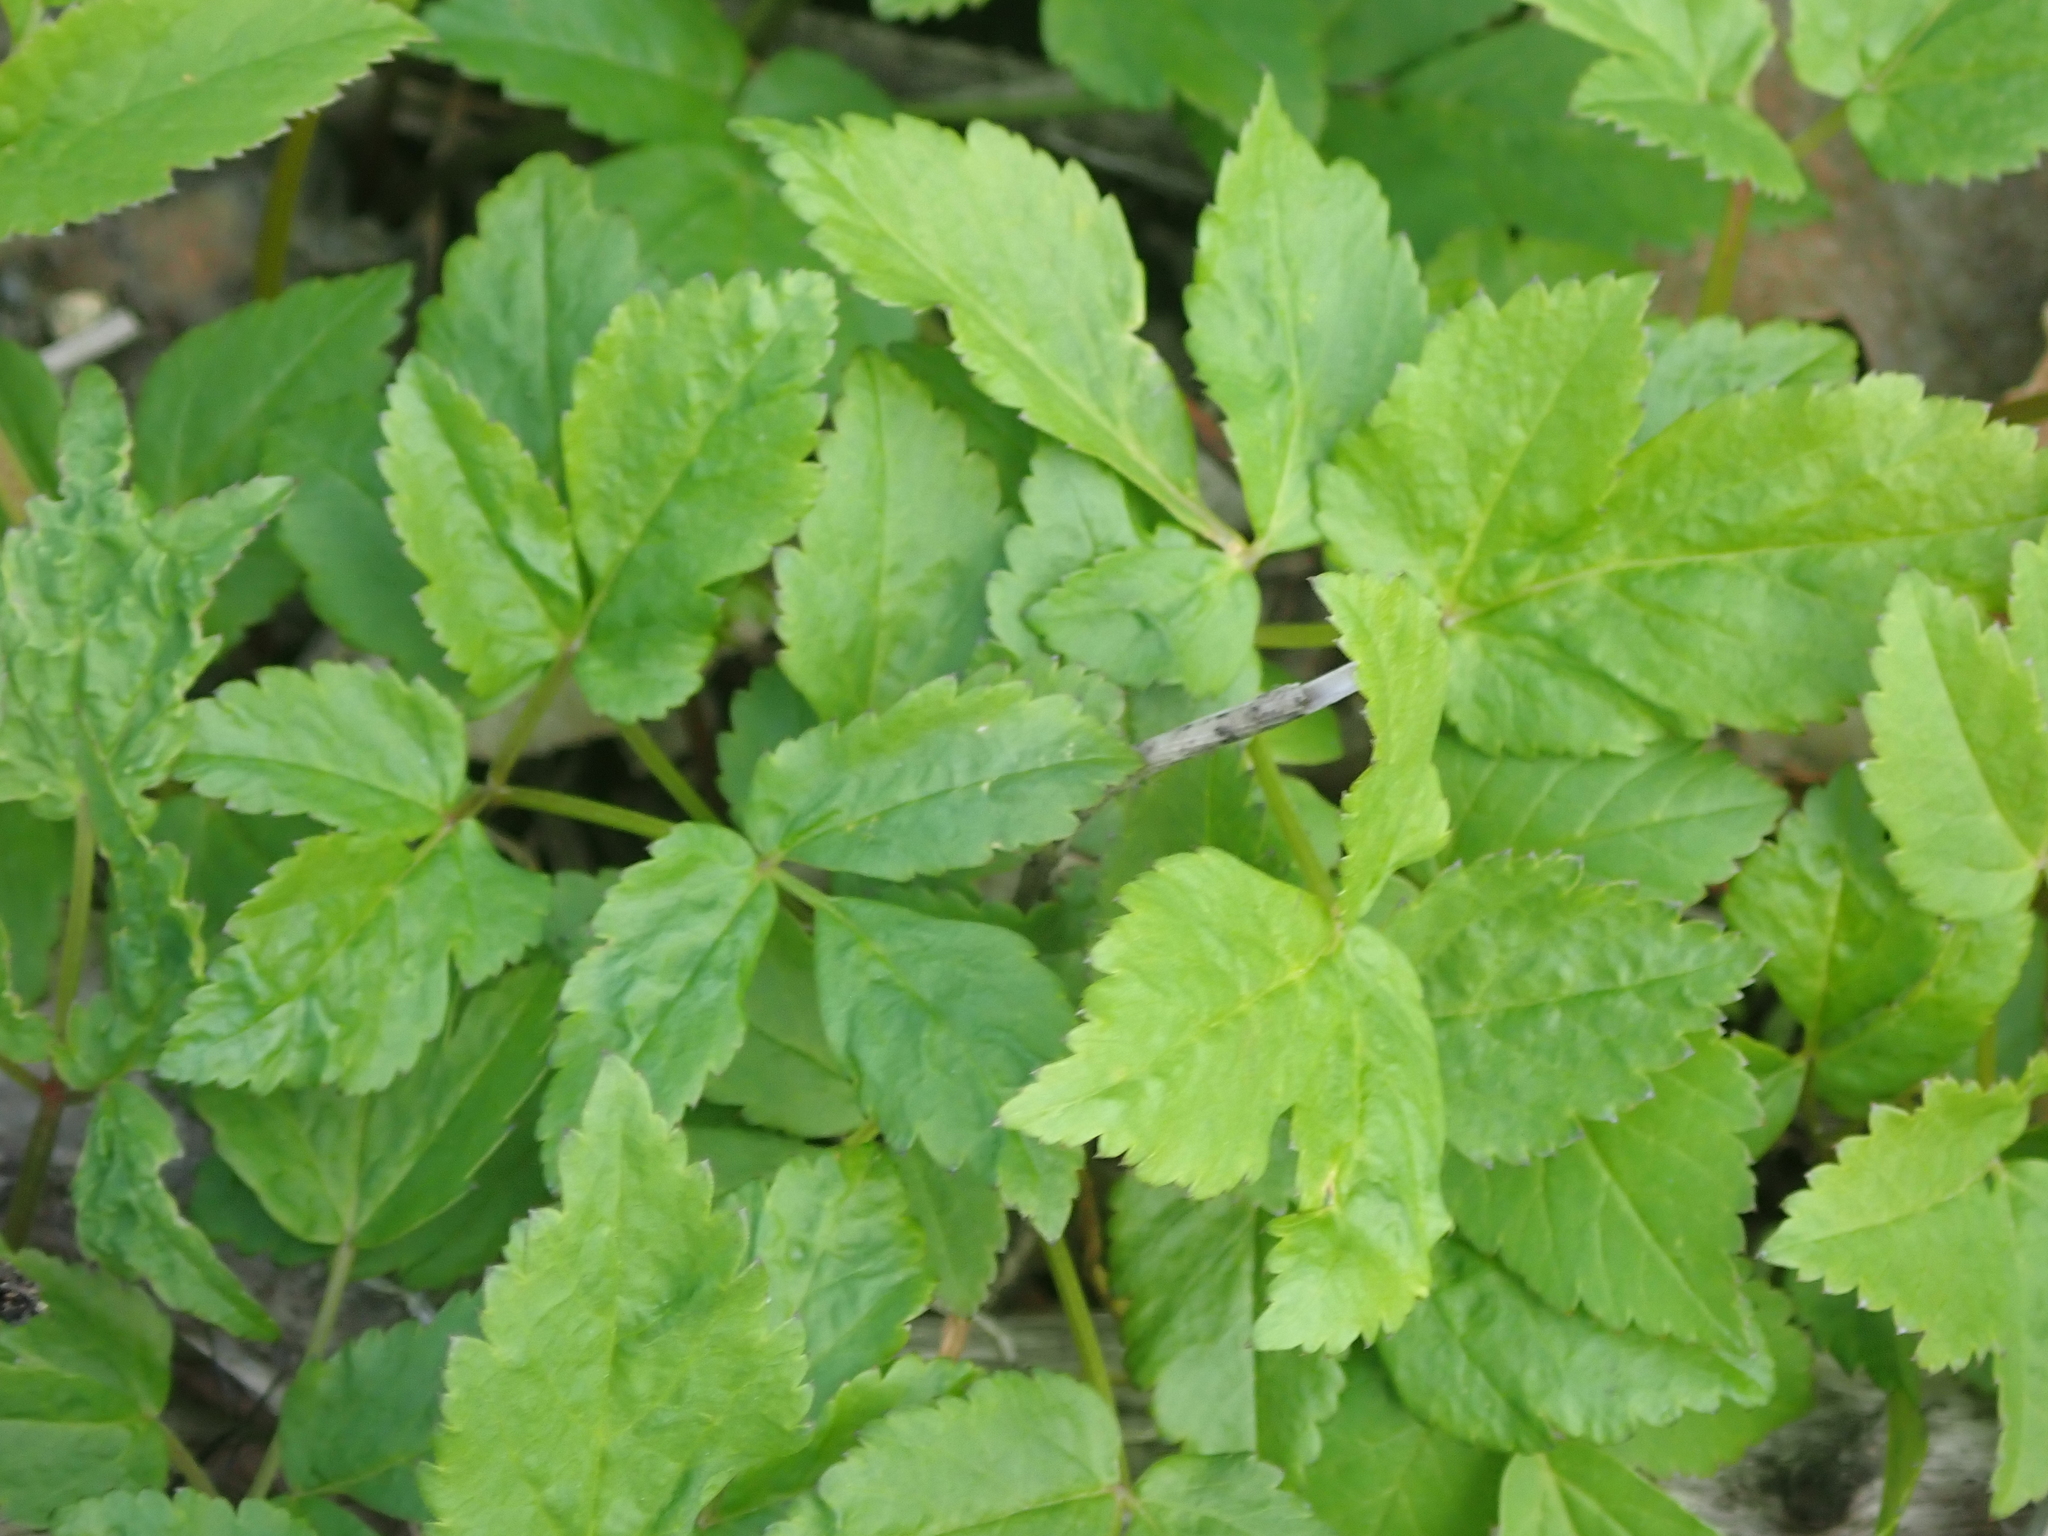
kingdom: Plantae
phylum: Tracheophyta
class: Magnoliopsida
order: Apiales
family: Apiaceae
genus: Aegopodium
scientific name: Aegopodium podagraria
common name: Ground-elder
